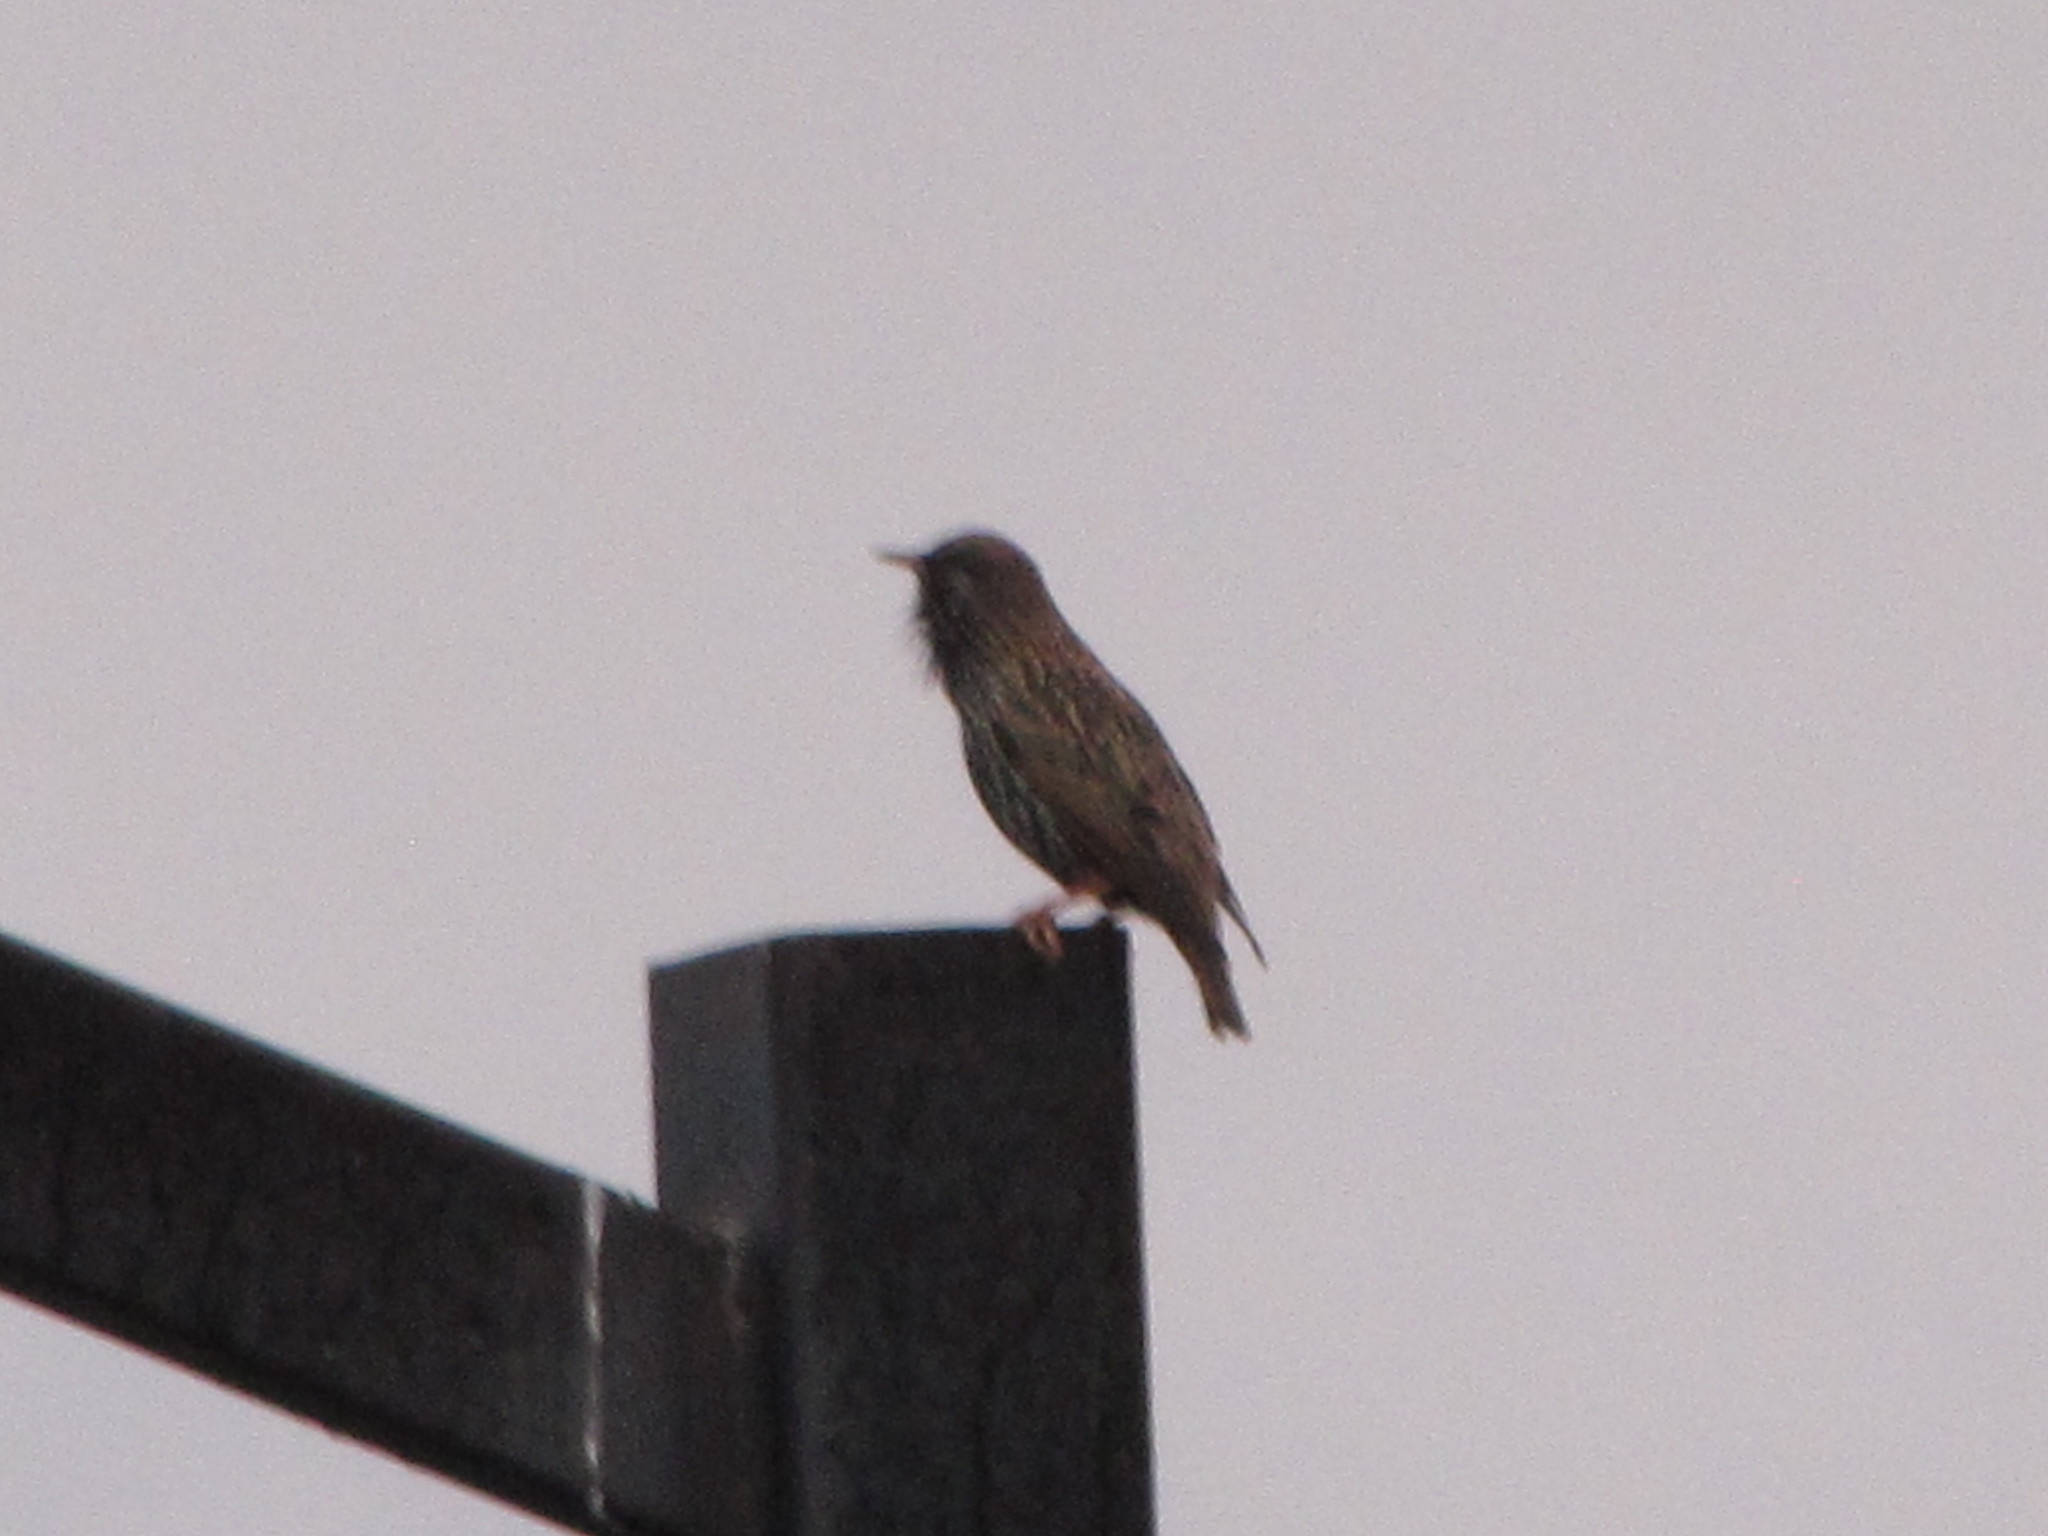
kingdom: Animalia
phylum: Chordata
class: Aves
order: Passeriformes
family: Sturnidae
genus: Sturnus
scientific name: Sturnus vulgaris
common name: Common starling
